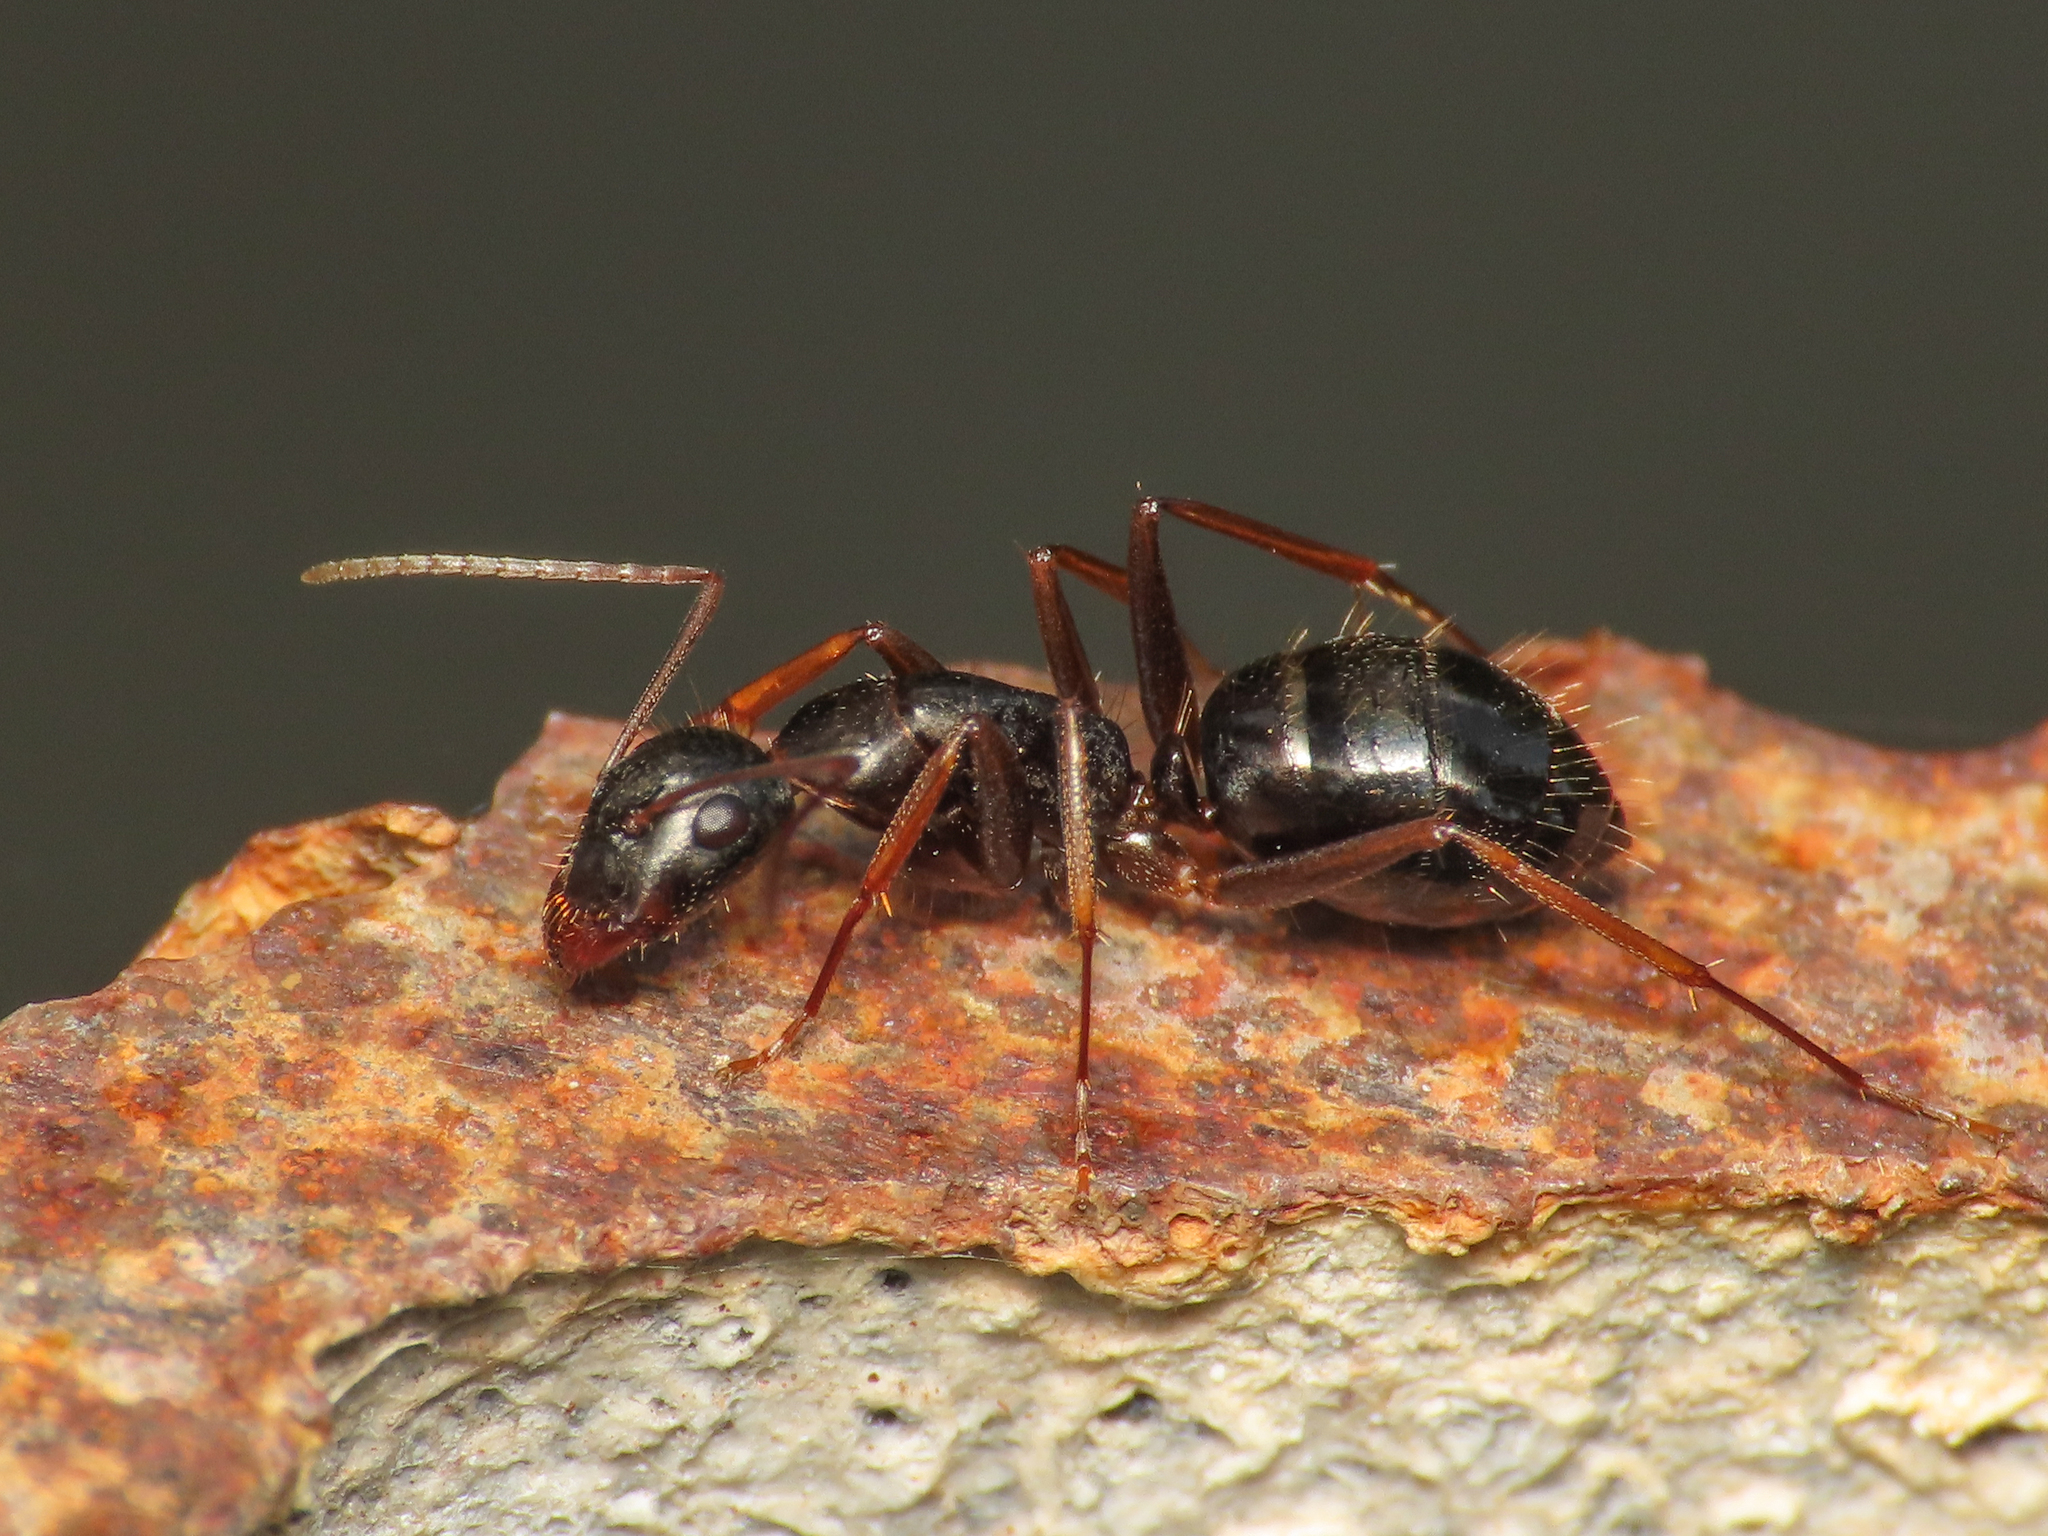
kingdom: Animalia
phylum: Arthropoda
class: Insecta
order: Hymenoptera
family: Formicidae
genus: Camponotus
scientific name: Camponotus aethiops
